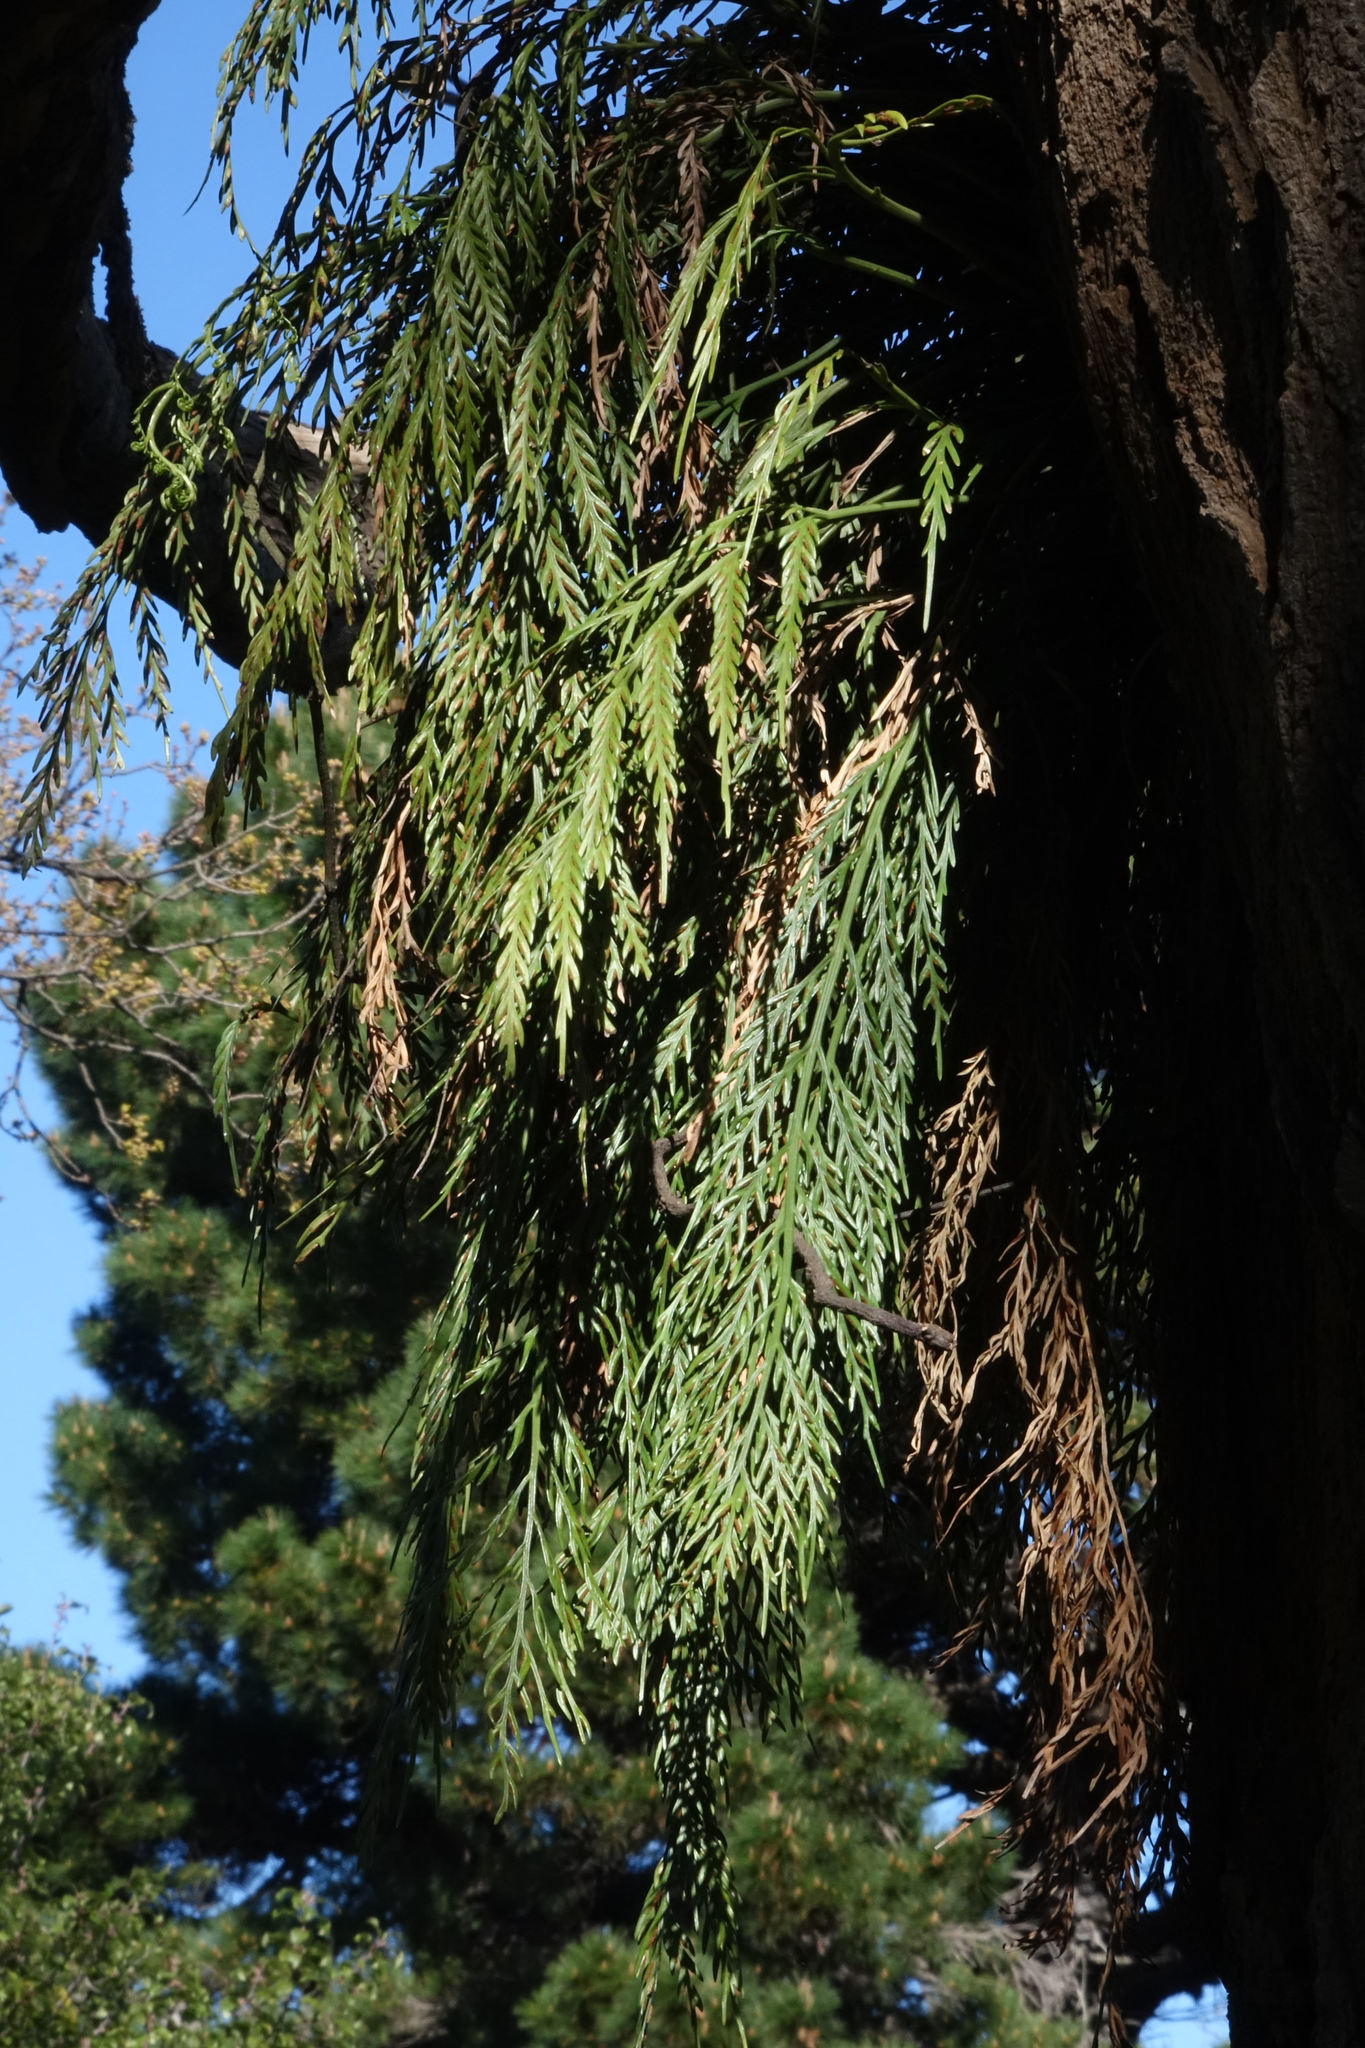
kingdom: Plantae
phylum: Tracheophyta
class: Polypodiopsida
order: Polypodiales
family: Aspleniaceae
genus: Asplenium
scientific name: Asplenium flaccidum
